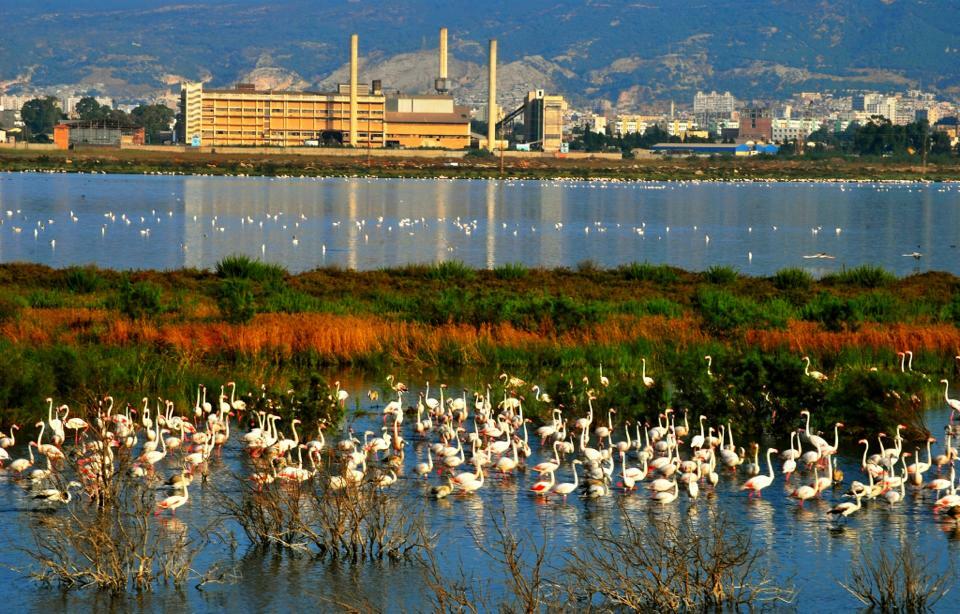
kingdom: Animalia
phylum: Chordata
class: Aves
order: Phoenicopteriformes
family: Phoenicopteridae
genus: Phoenicopterus
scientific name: Phoenicopterus roseus
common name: Greater flamingo
